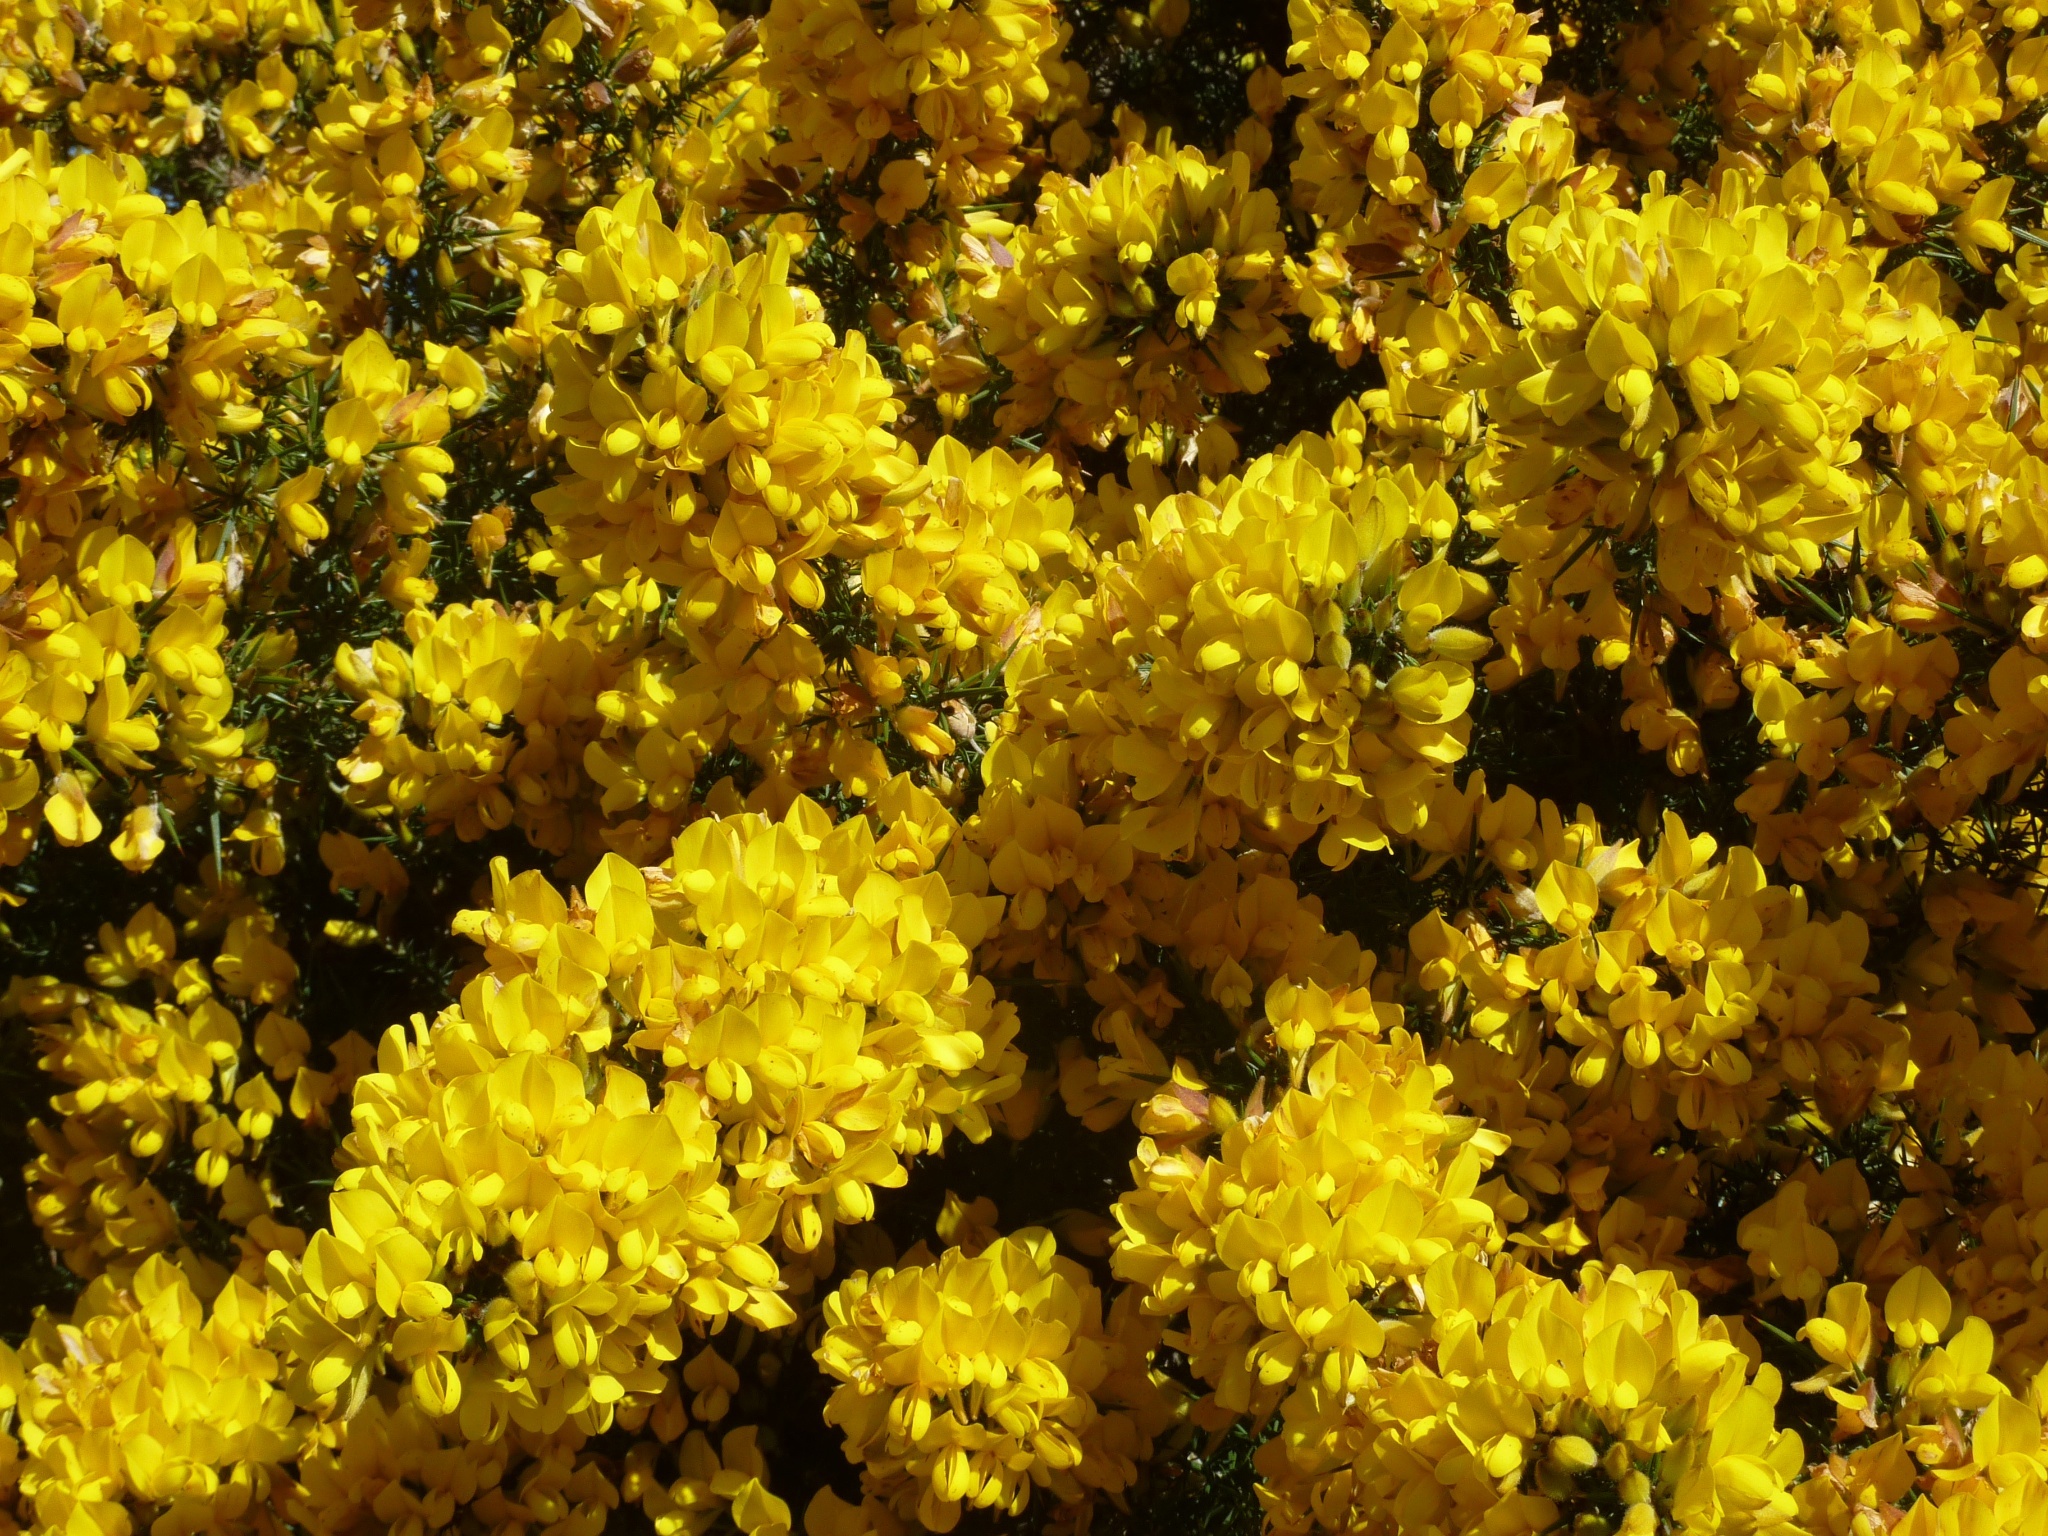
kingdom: Plantae
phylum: Tracheophyta
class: Magnoliopsida
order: Fabales
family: Fabaceae
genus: Ulex
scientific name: Ulex europaeus
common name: Common gorse
